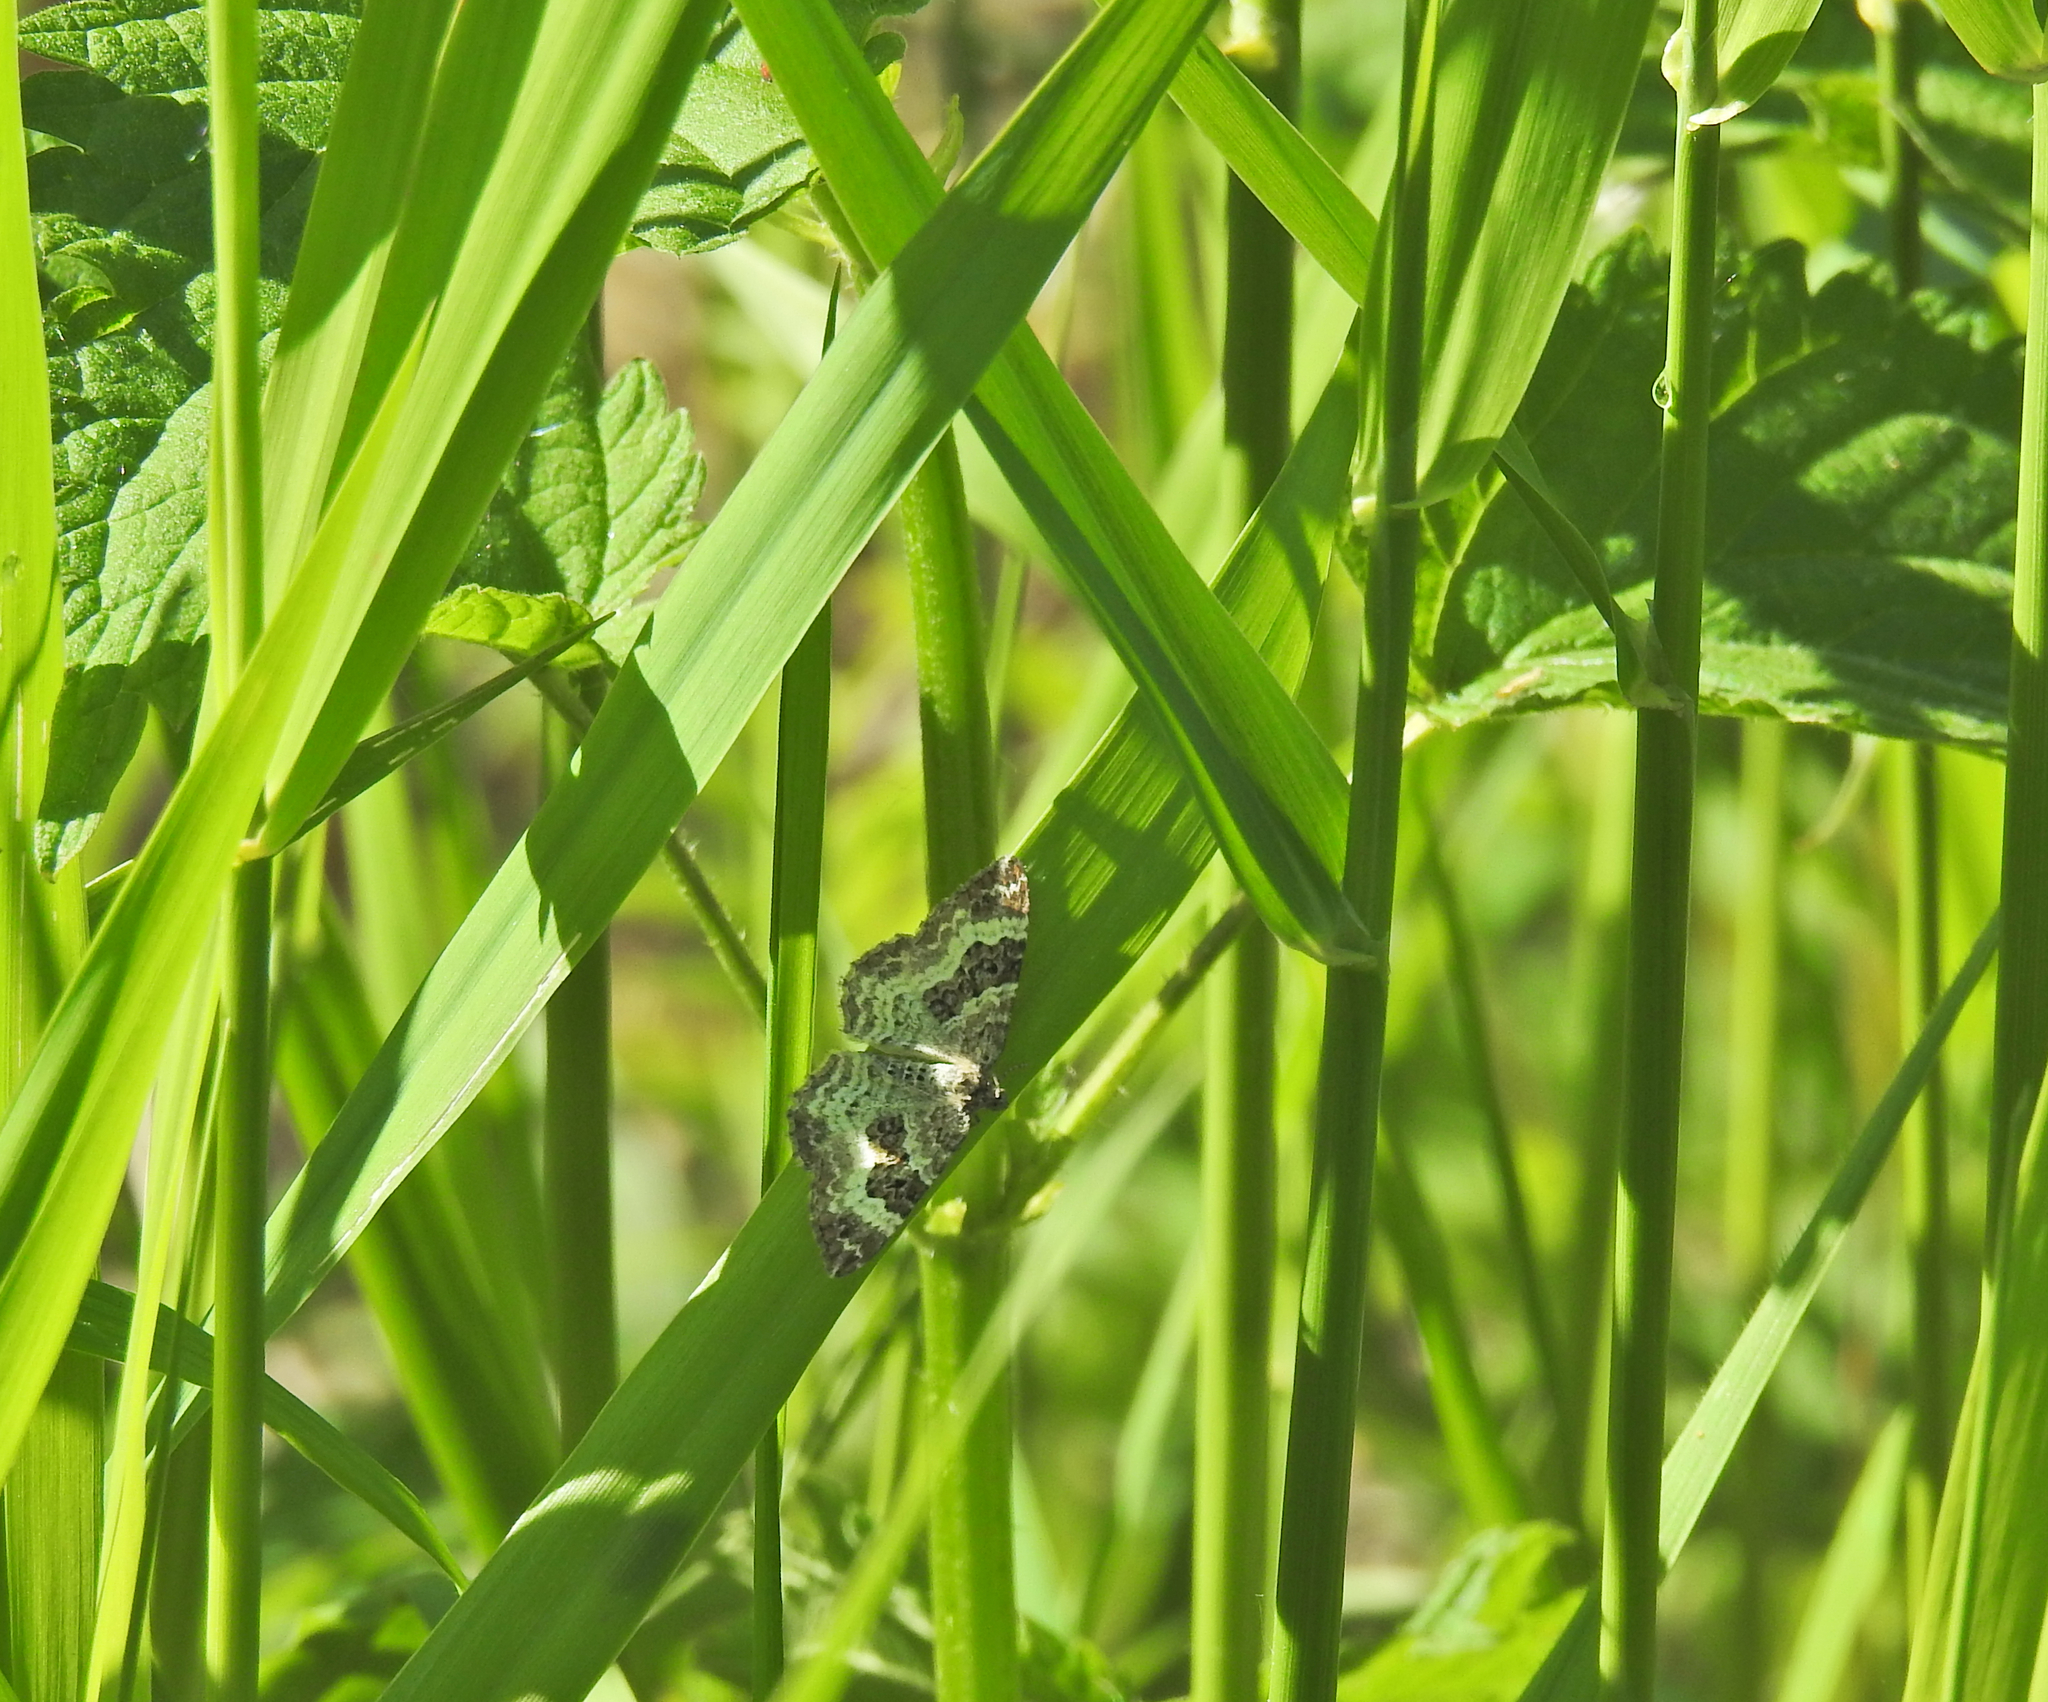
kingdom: Animalia
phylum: Arthropoda
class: Insecta
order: Lepidoptera
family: Geometridae
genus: Epirrhoe
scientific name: Epirrhoe alternata
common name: Common carpet
